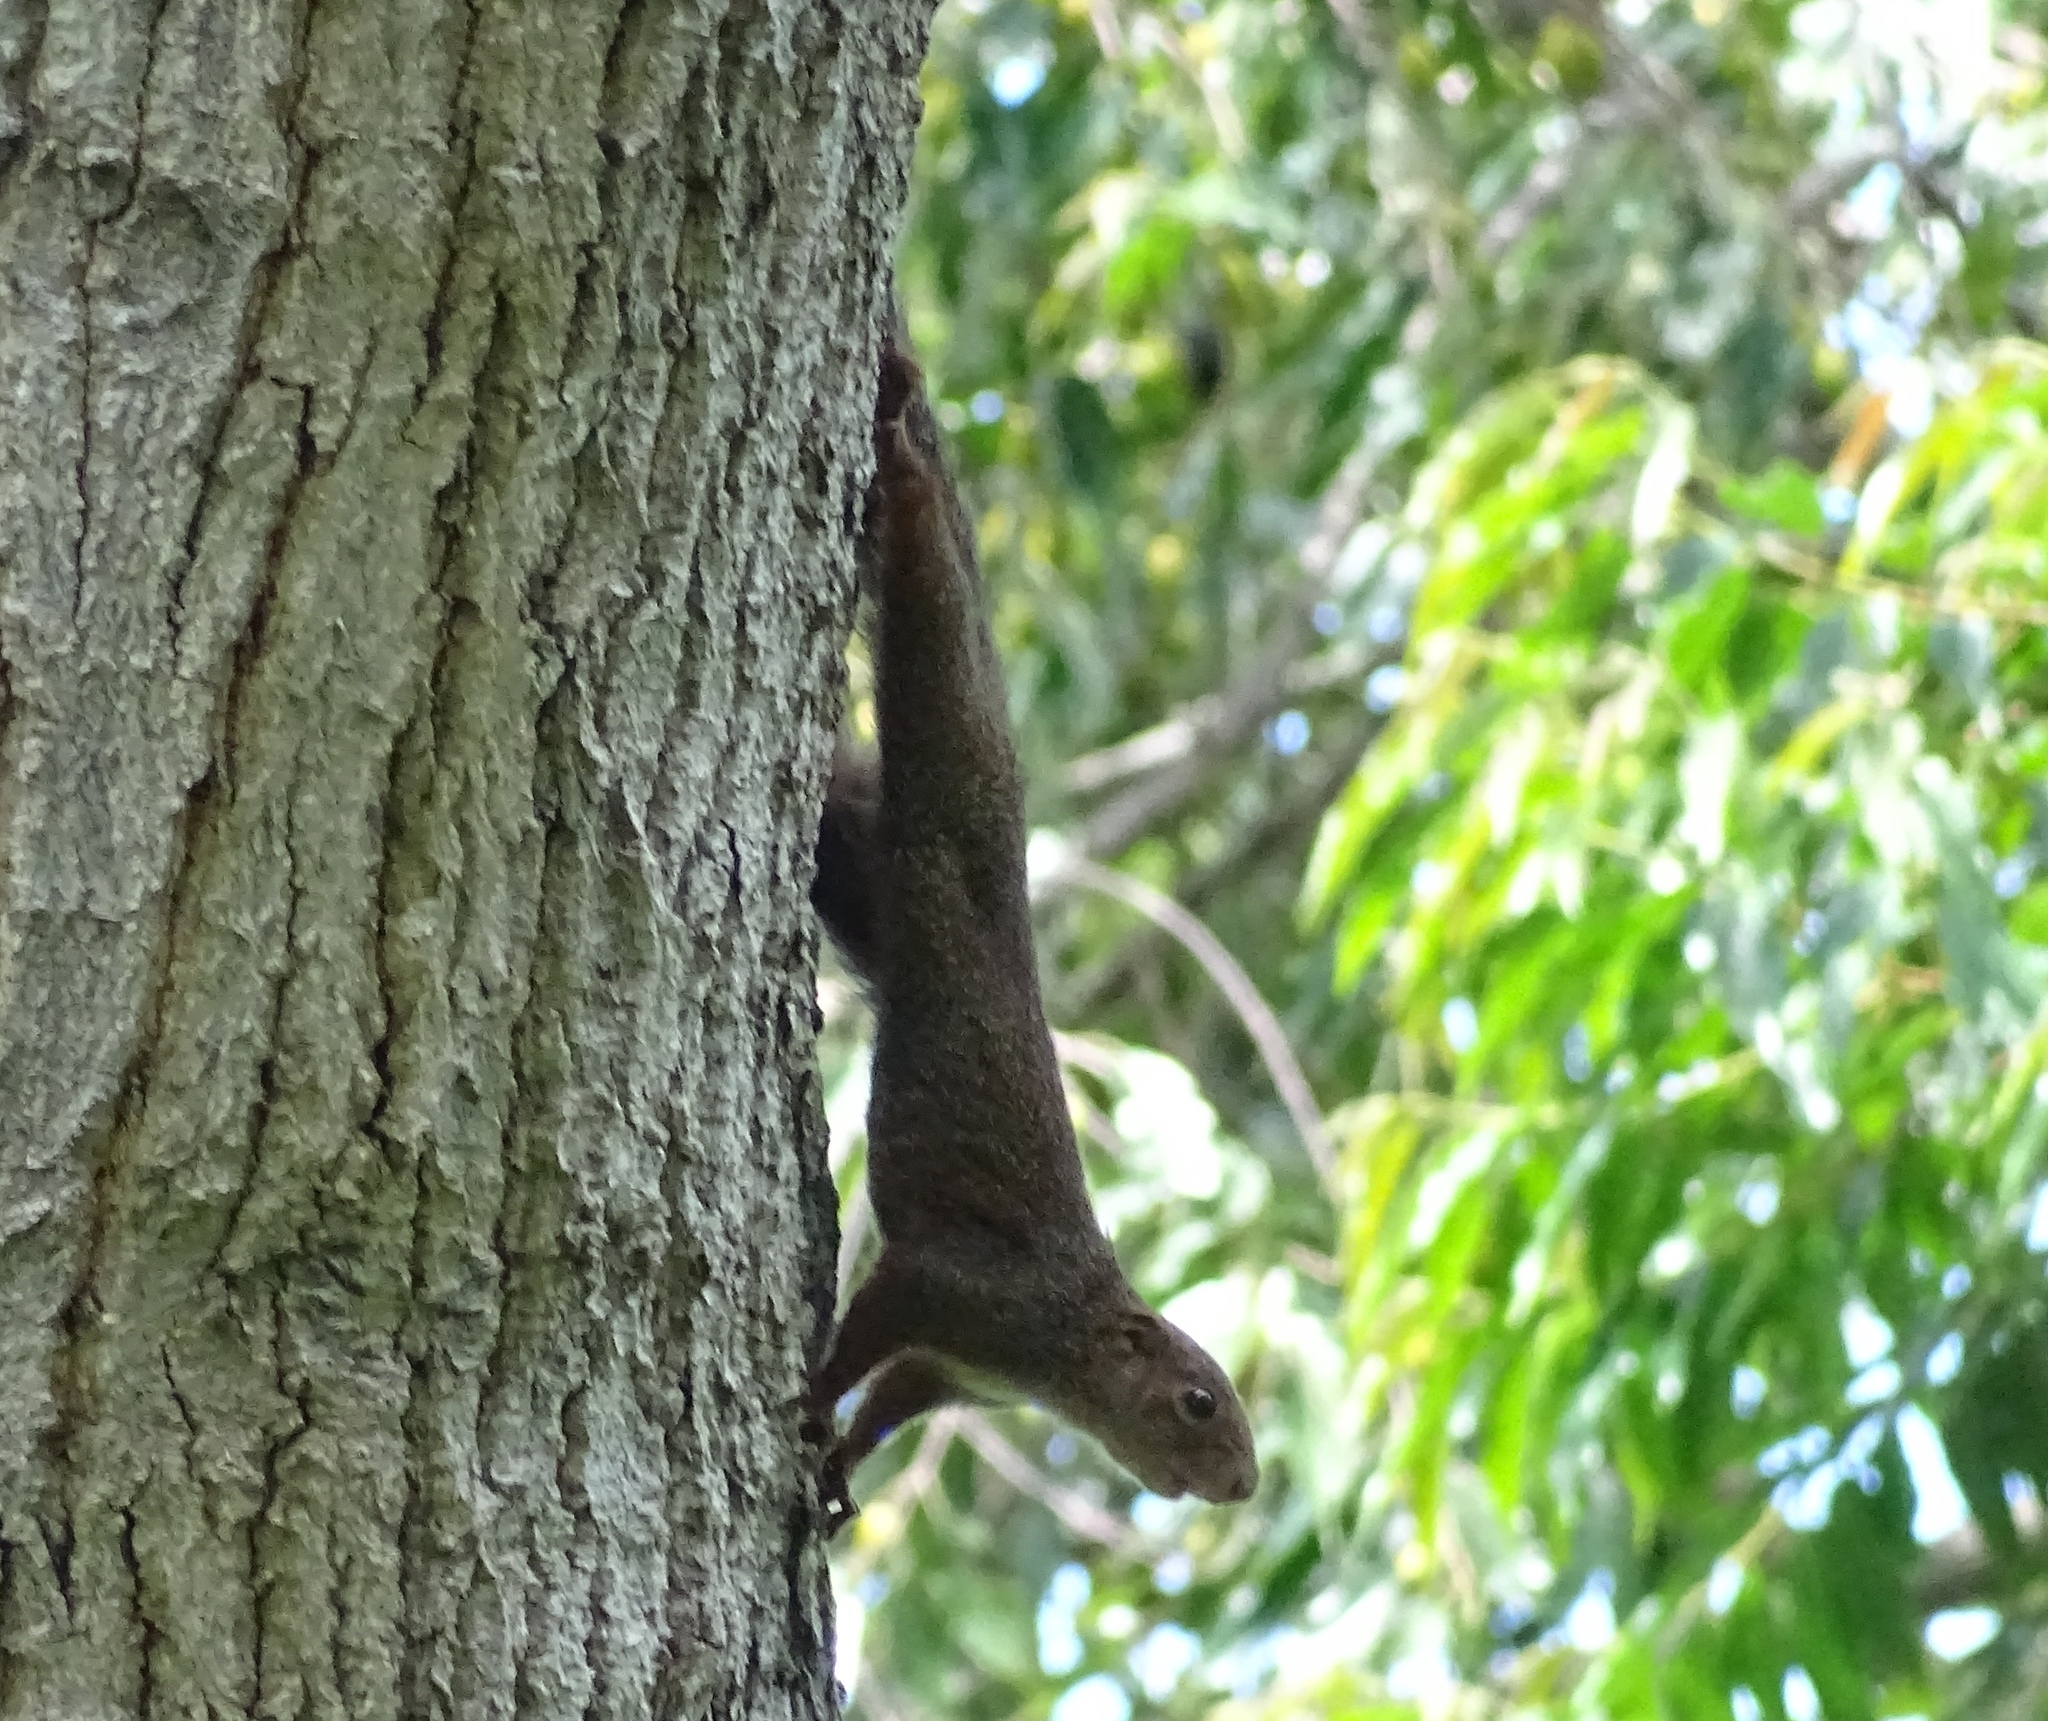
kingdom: Animalia
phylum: Chordata
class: Mammalia
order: Rodentia
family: Sciuridae
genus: Heliosciurus
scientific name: Heliosciurus rufobrachium
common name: Red-legged sun squirrel
